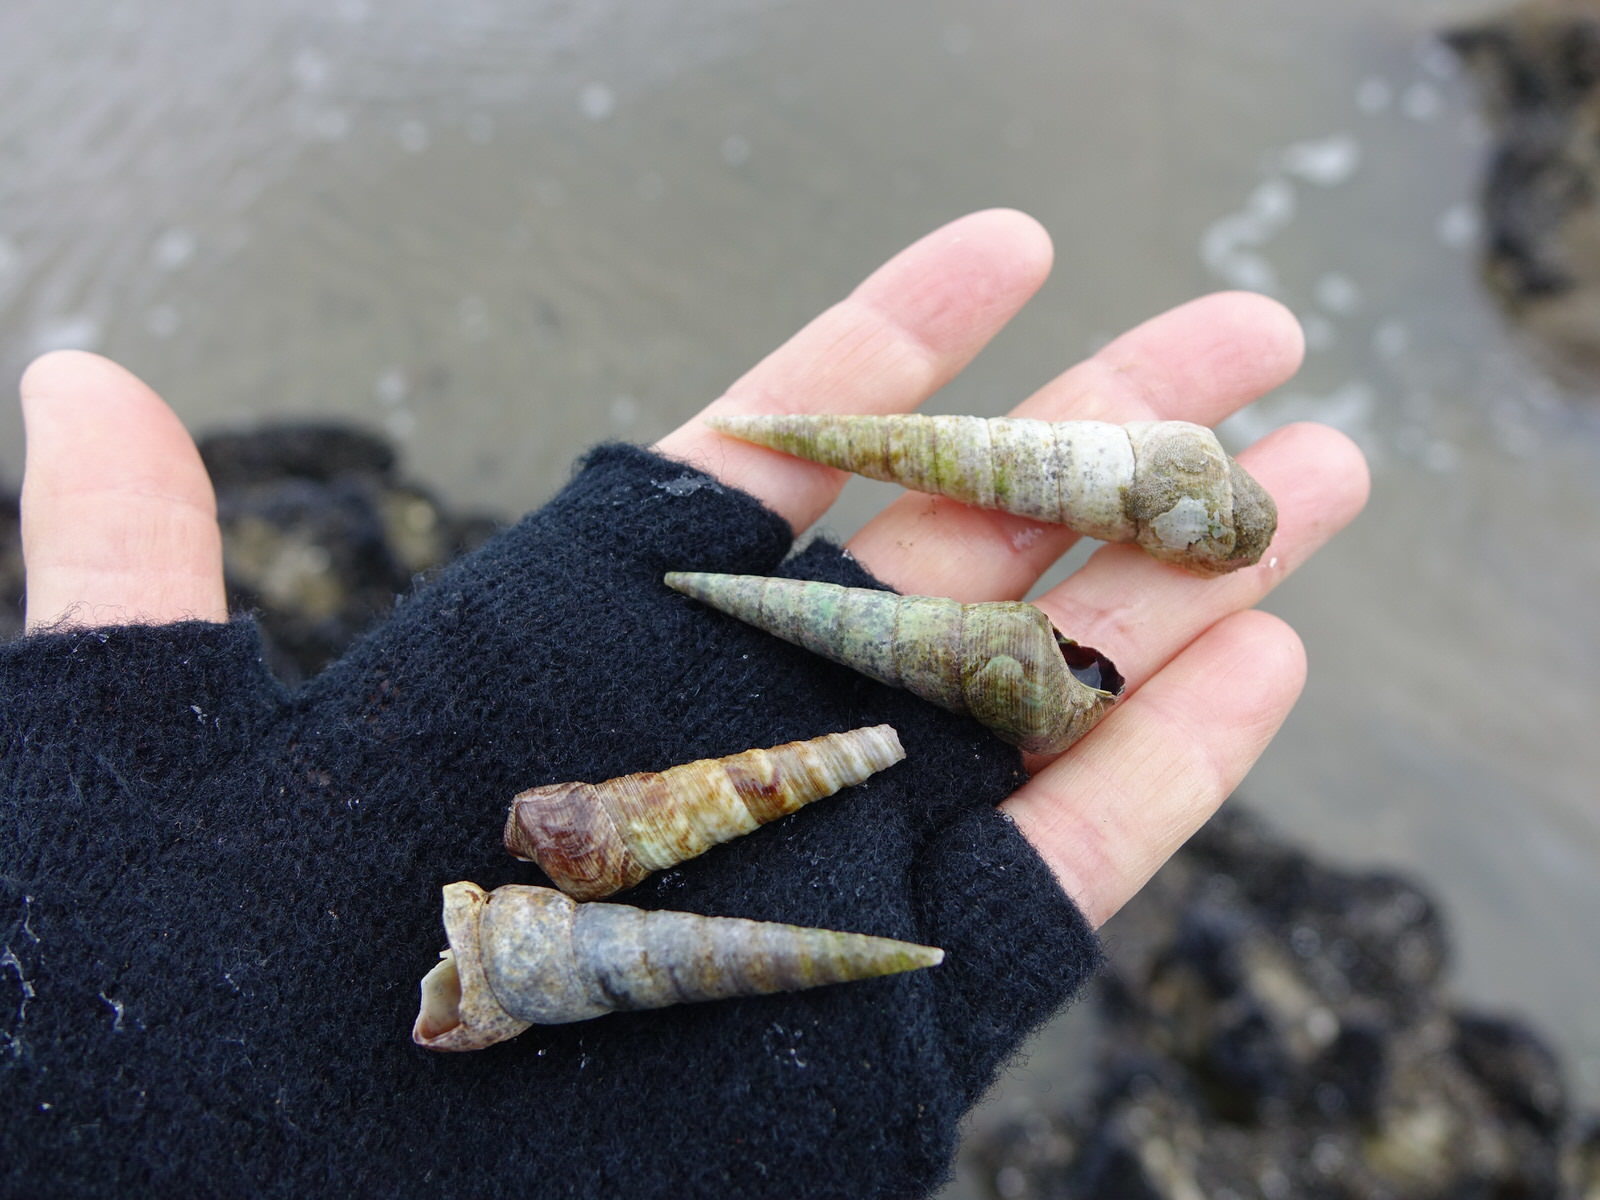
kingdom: Animalia
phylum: Mollusca
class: Gastropoda
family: Turritellidae
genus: Maoricolpus
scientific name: Maoricolpus roseus
